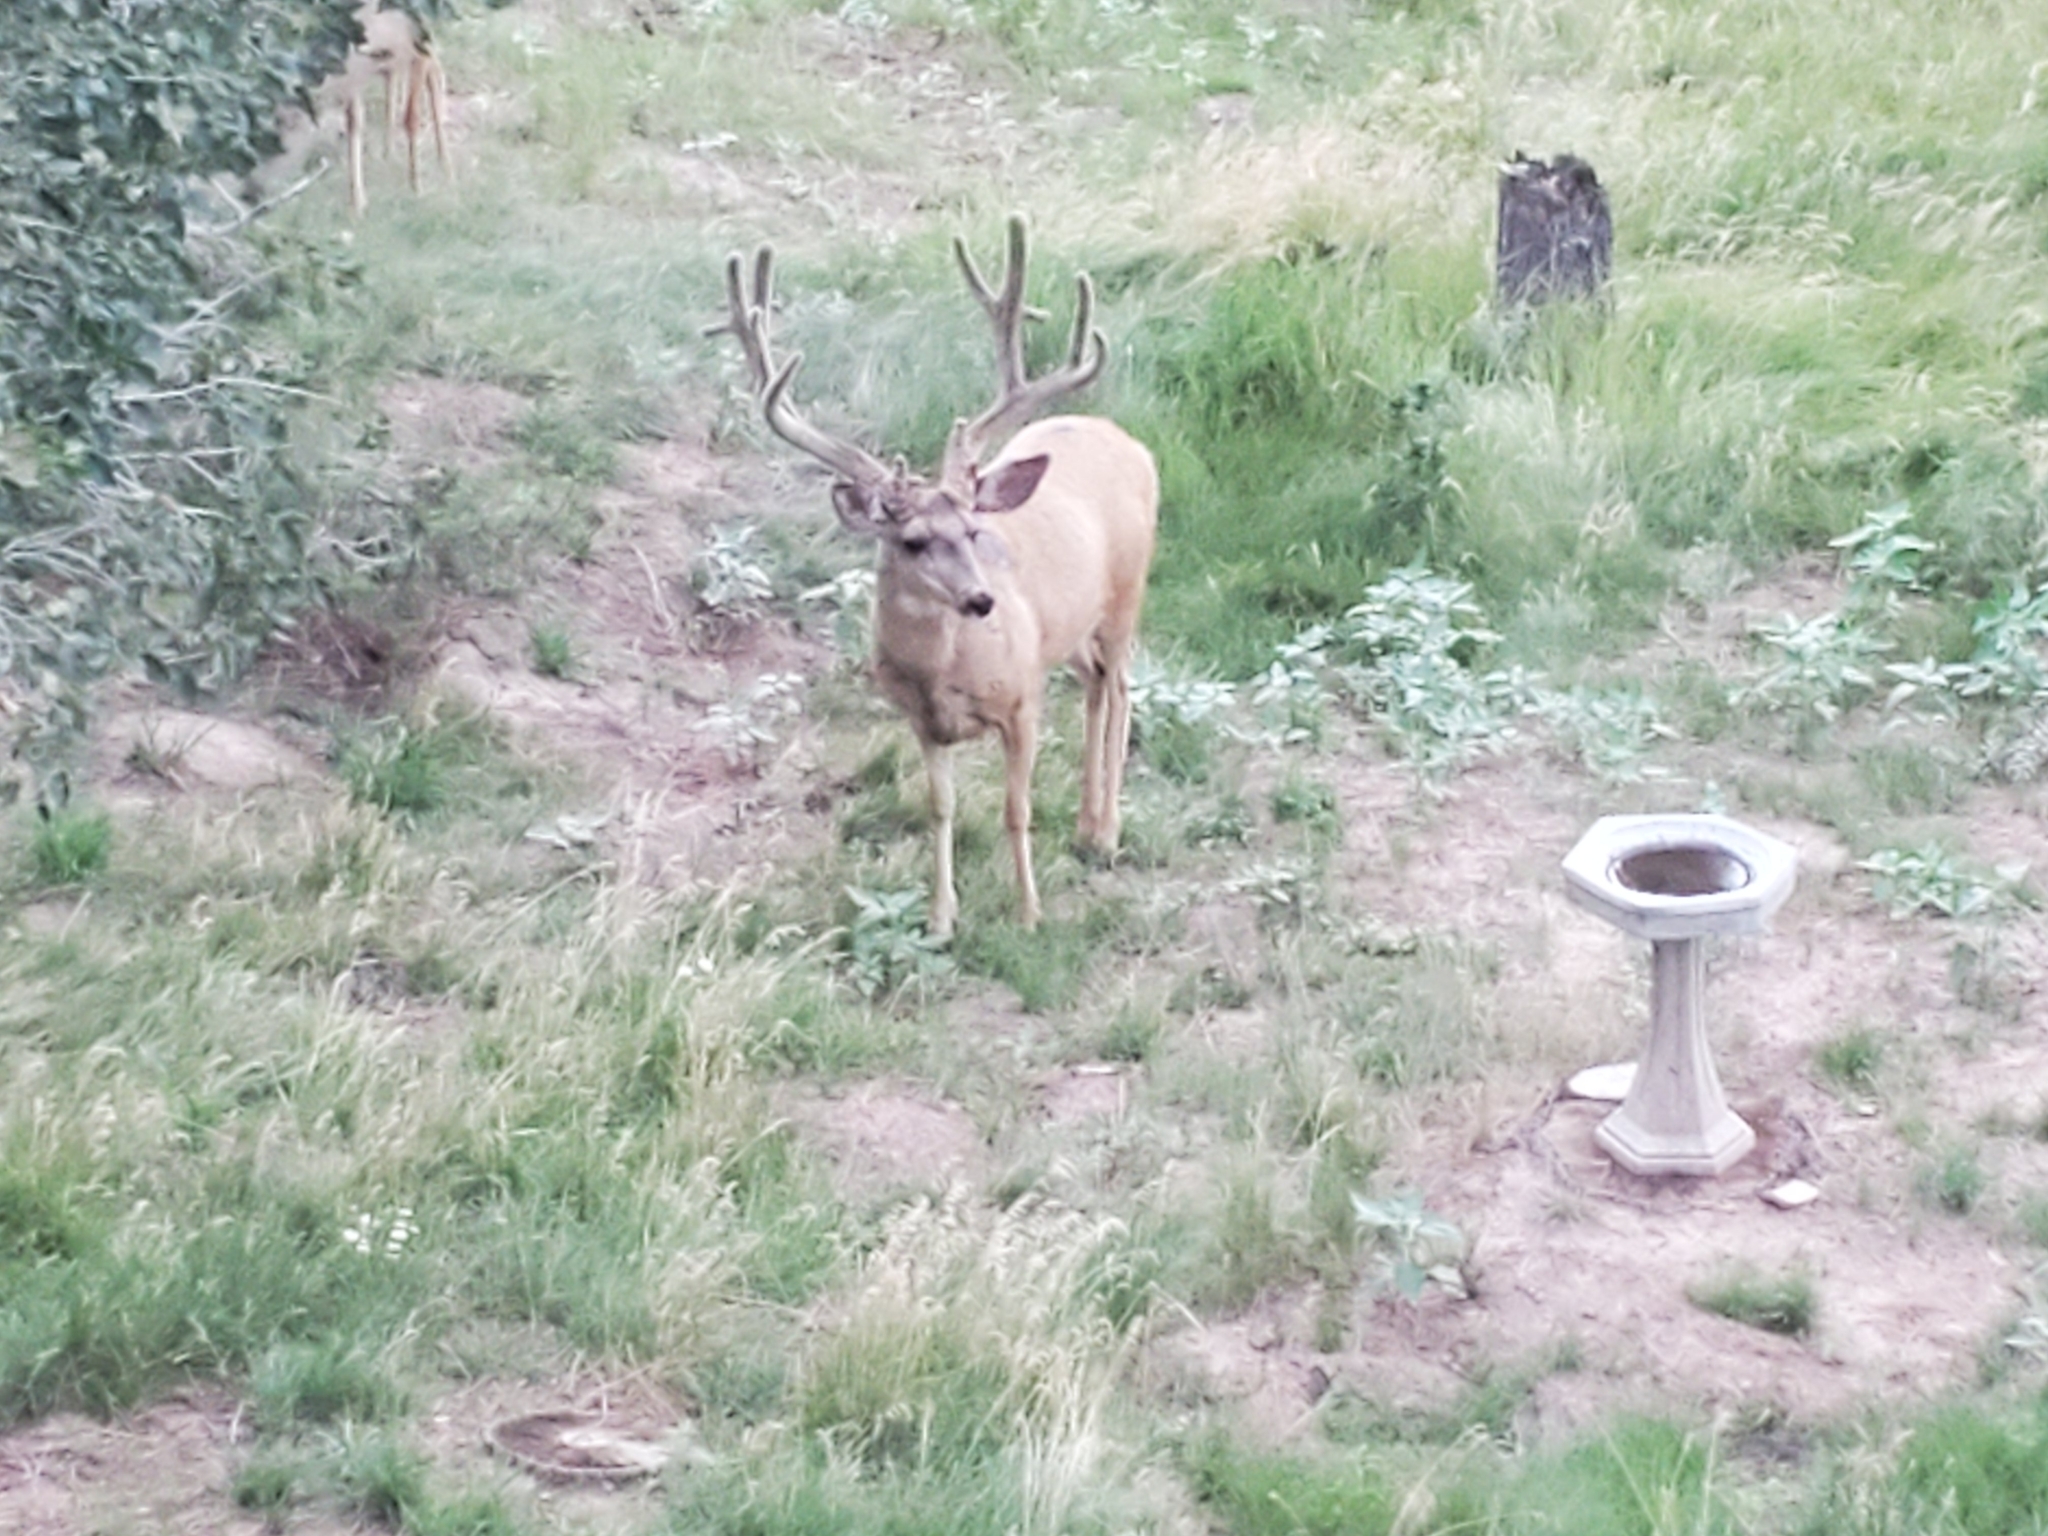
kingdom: Animalia
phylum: Chordata
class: Mammalia
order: Artiodactyla
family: Cervidae
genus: Odocoileus
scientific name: Odocoileus hemionus
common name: Mule deer
